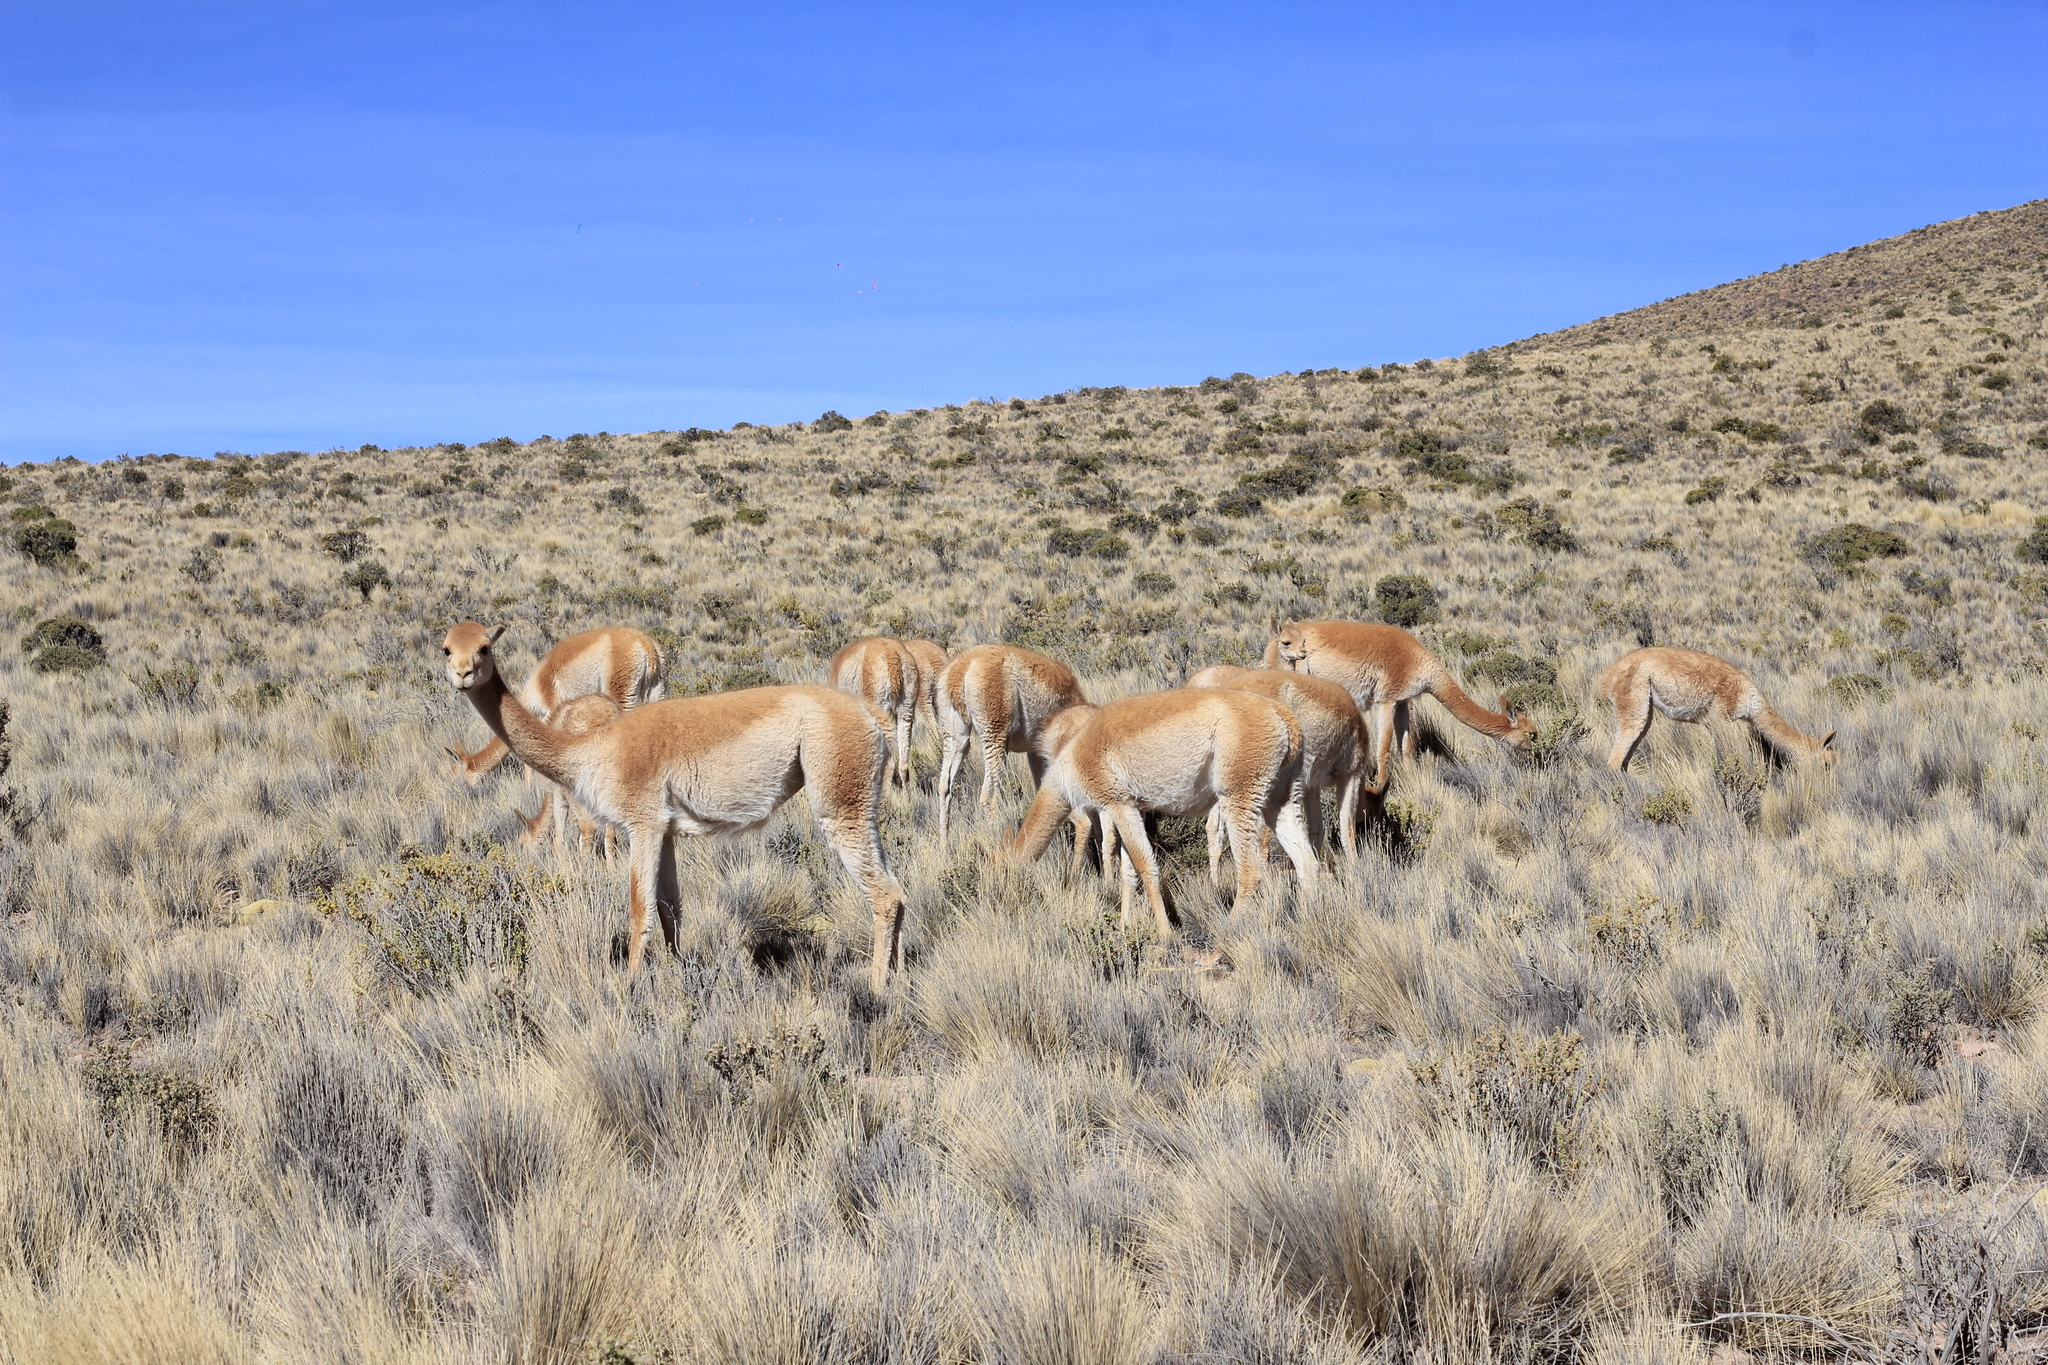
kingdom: Animalia
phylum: Chordata
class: Mammalia
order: Artiodactyla
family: Camelidae
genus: Vicugna
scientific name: Vicugna vicugna
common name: Vicugna
